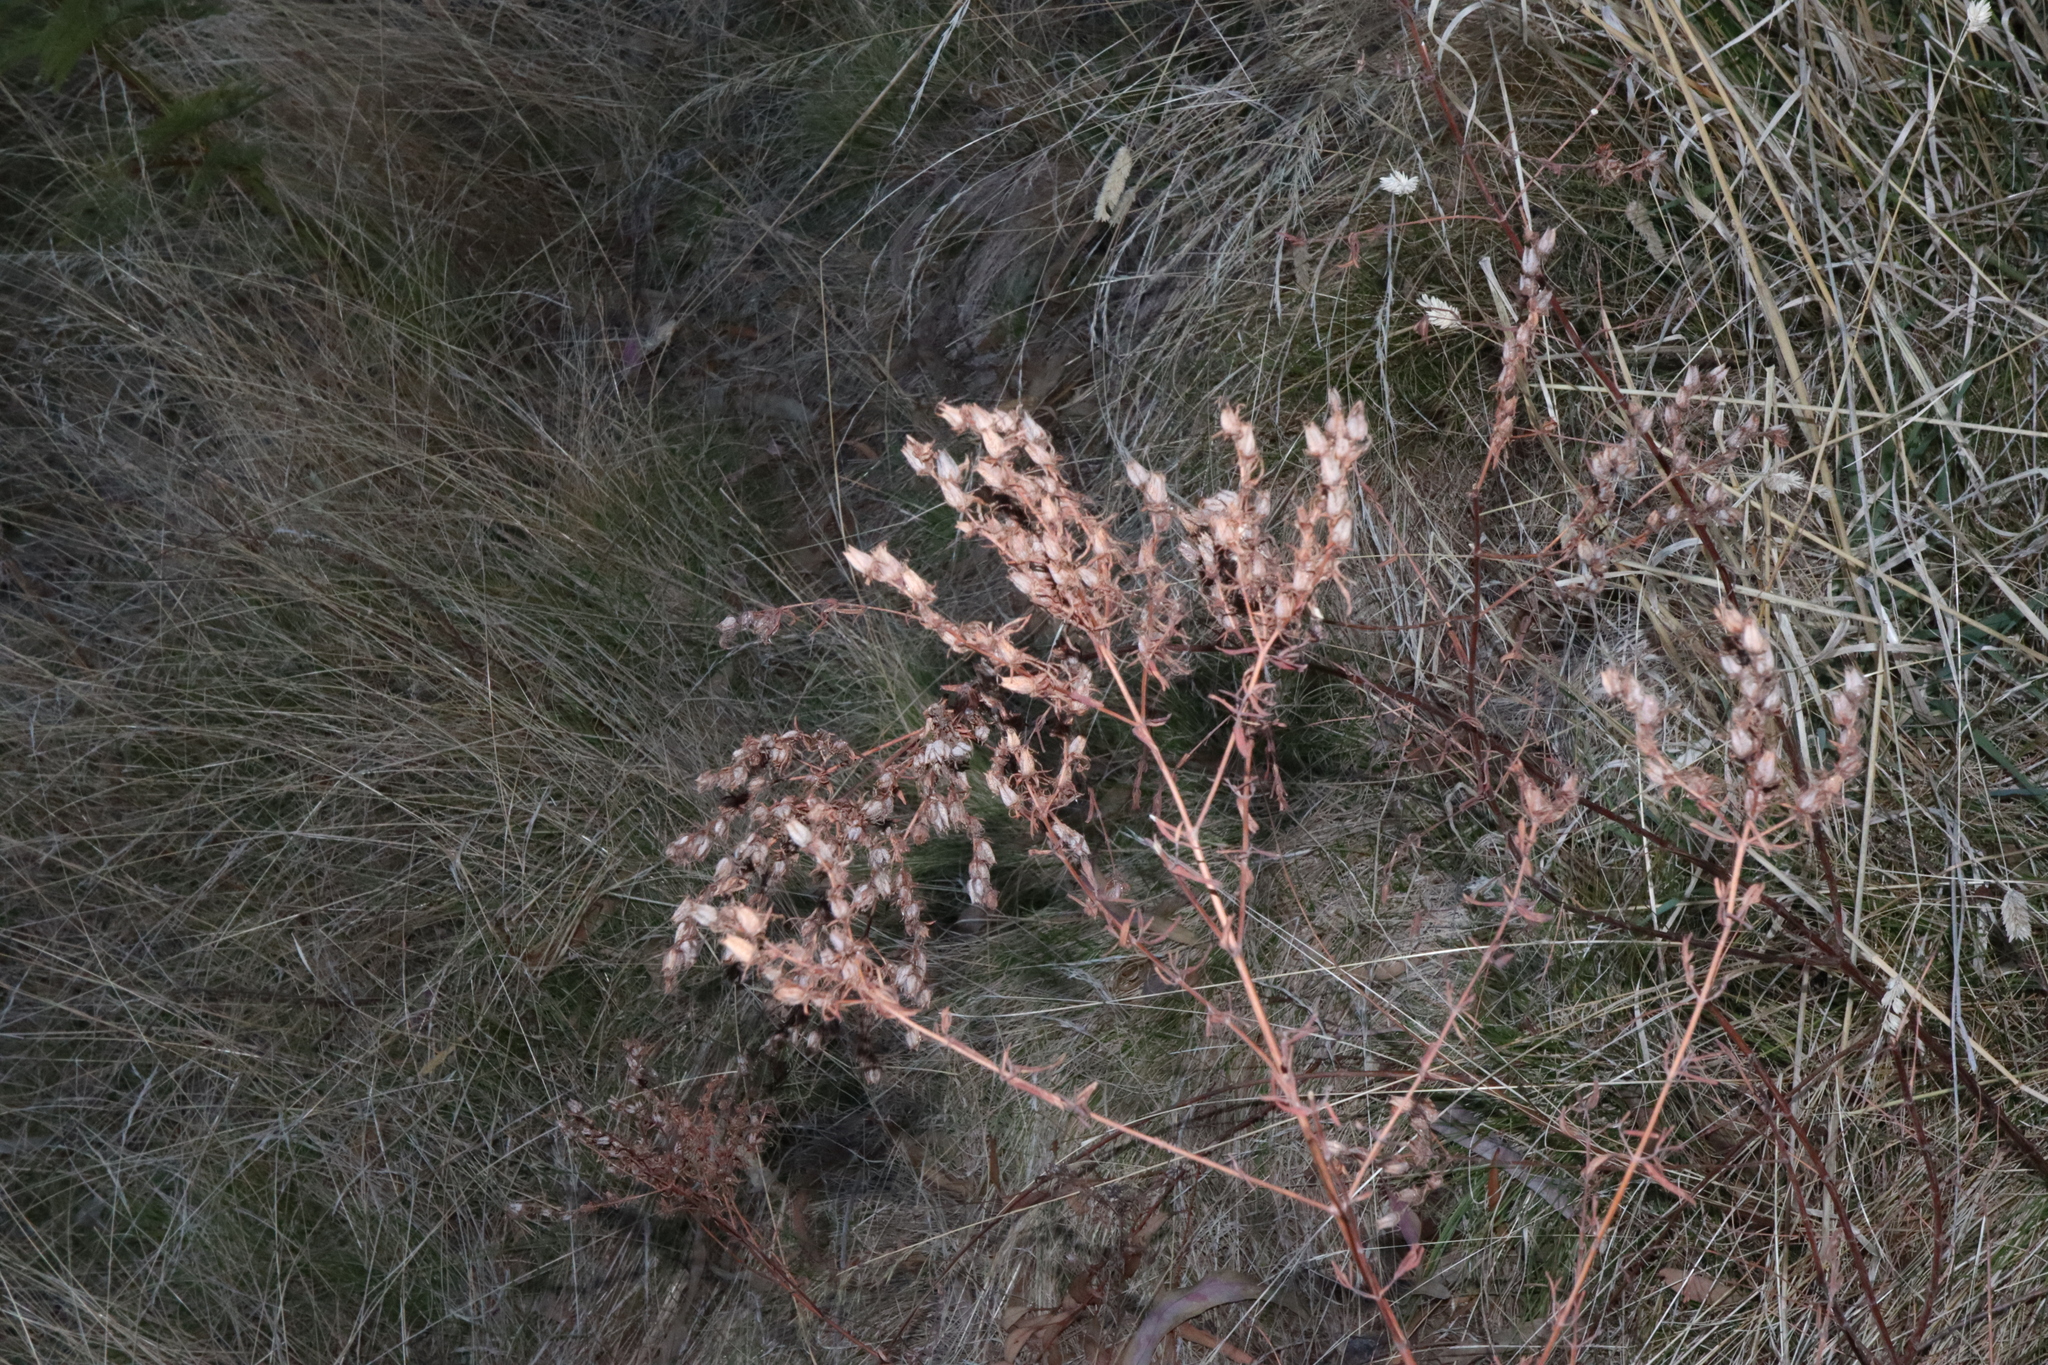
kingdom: Plantae
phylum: Tracheophyta
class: Magnoliopsida
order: Malpighiales
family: Hypericaceae
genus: Hypericum
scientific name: Hypericum perforatum
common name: Common st. johnswort
